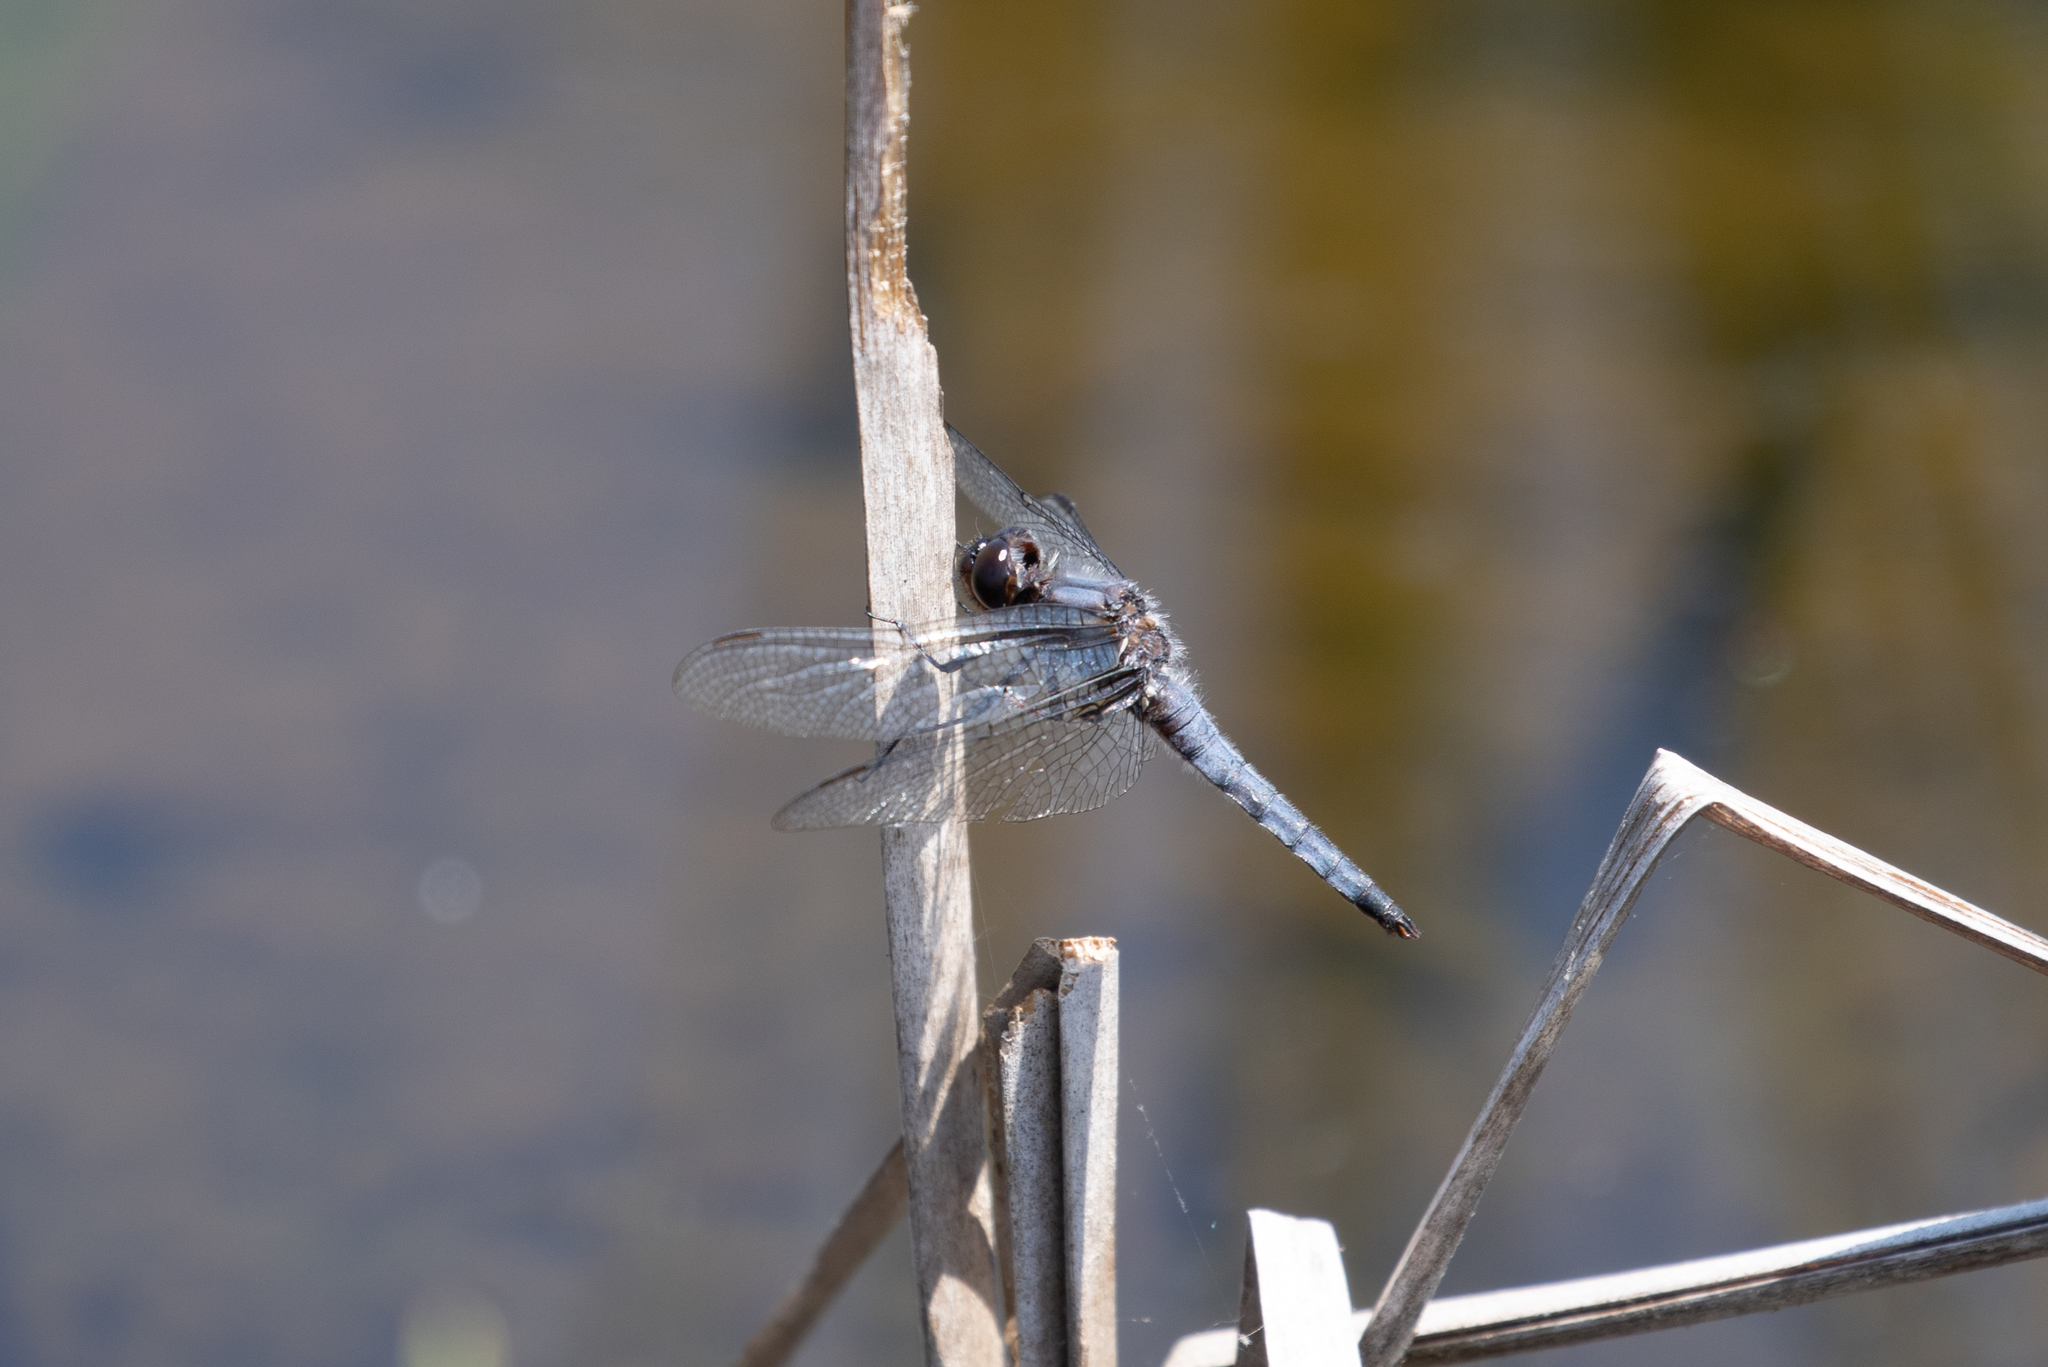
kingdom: Animalia
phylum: Arthropoda
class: Insecta
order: Odonata
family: Libellulidae
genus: Ladona
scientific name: Ladona deplanata
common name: Blue corporal
